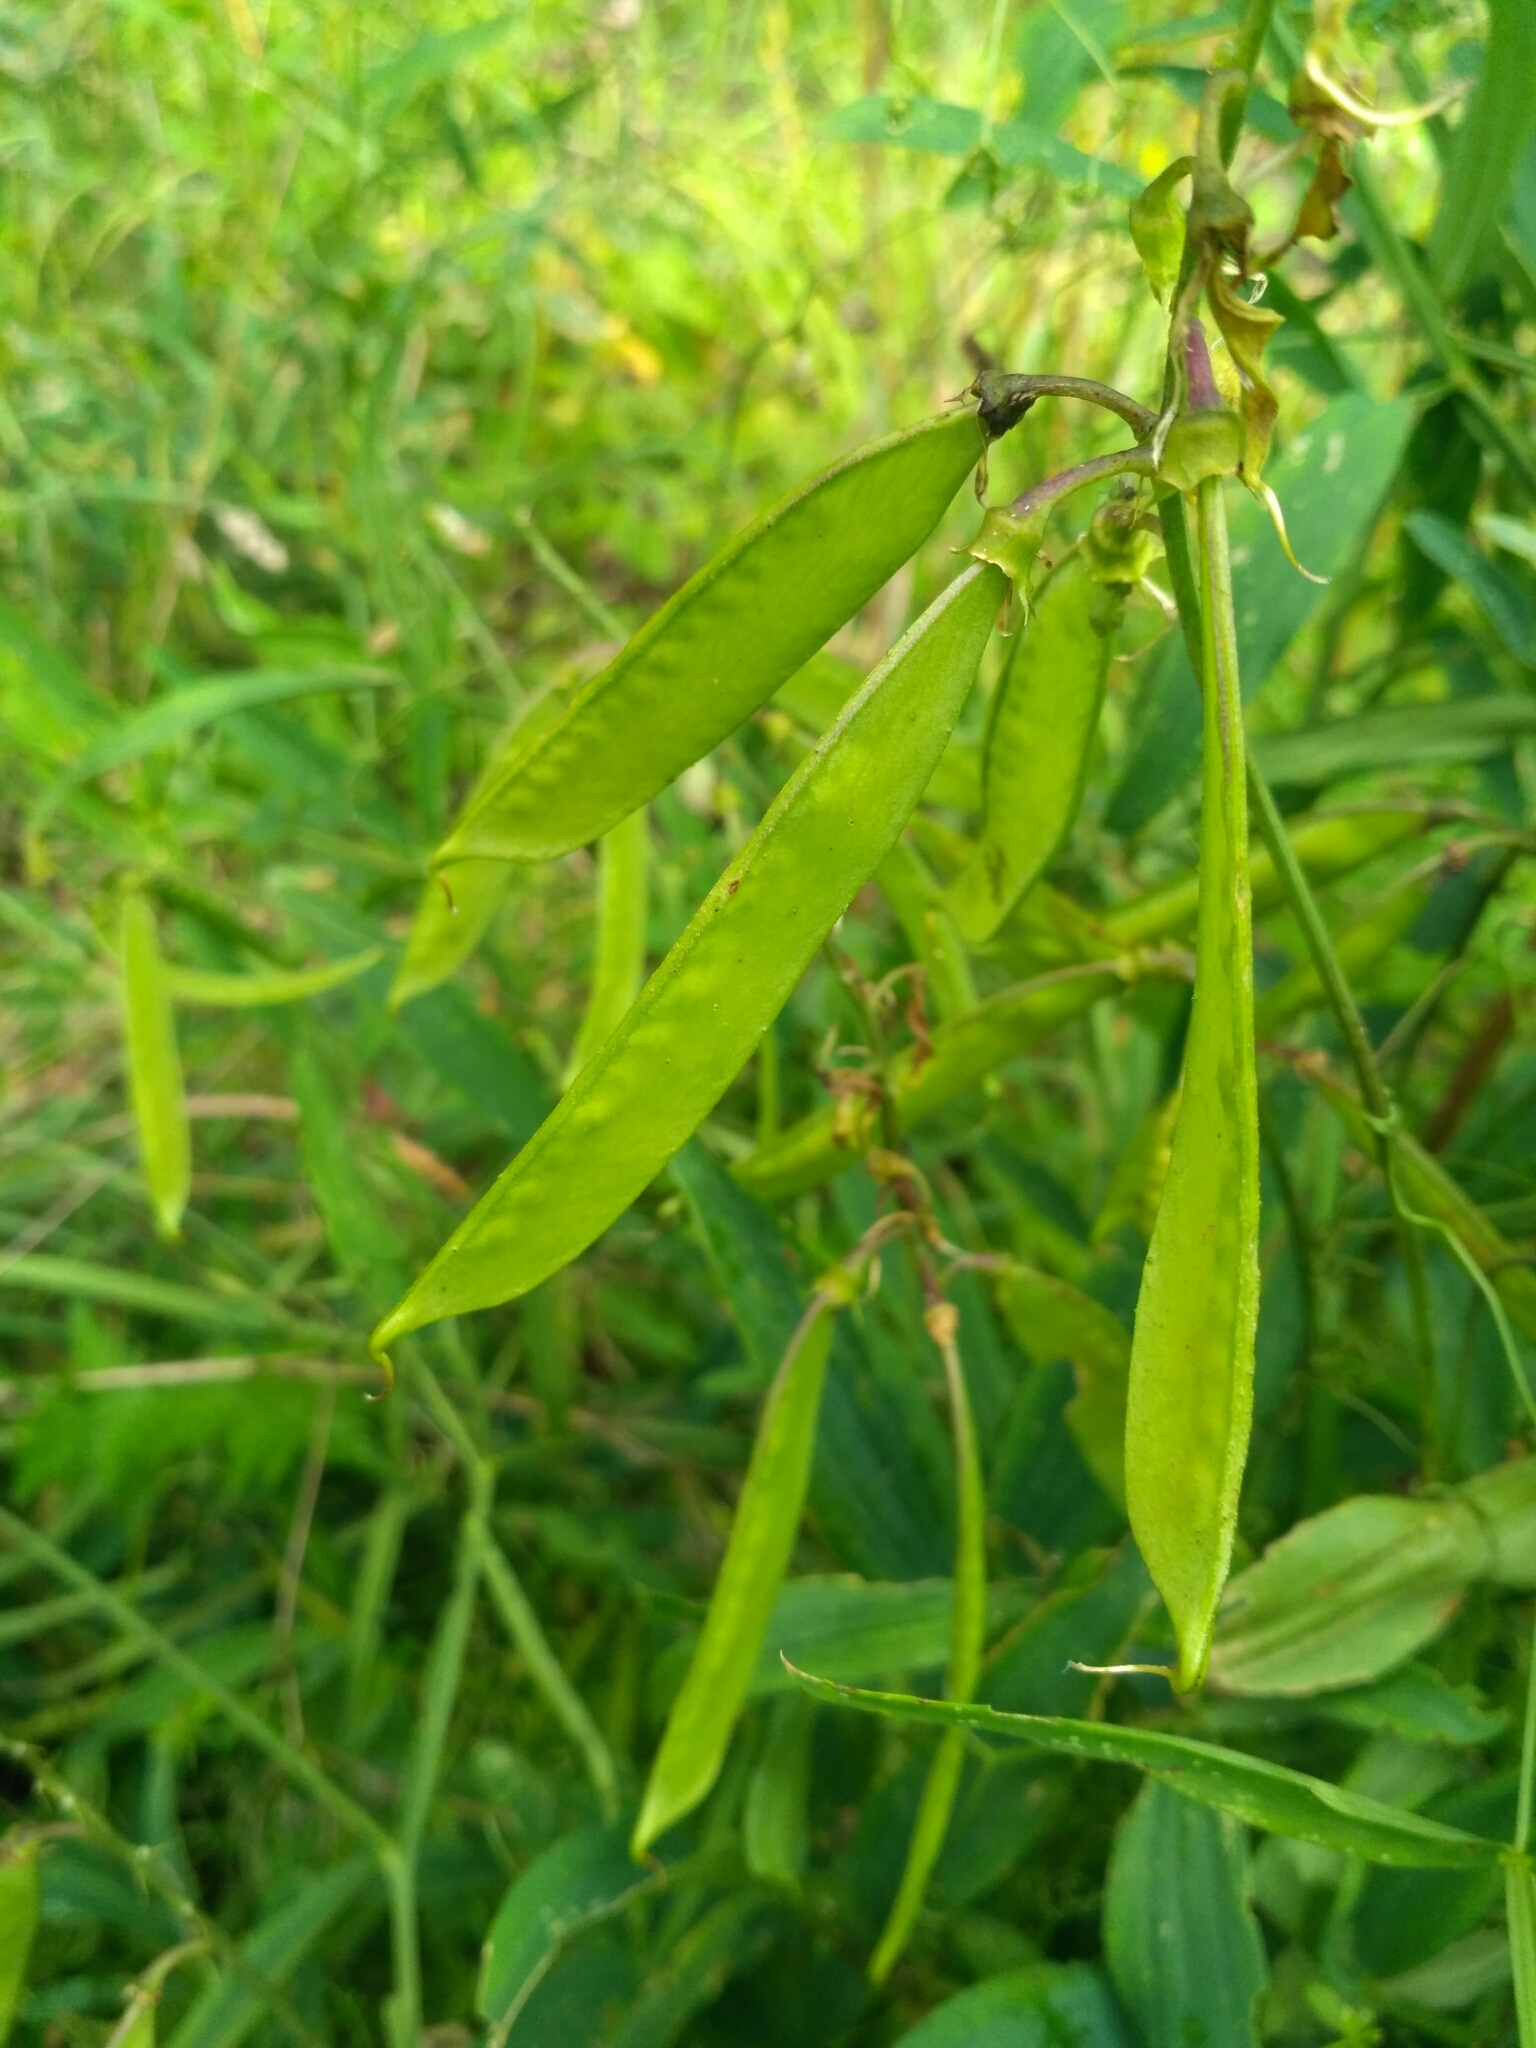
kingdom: Plantae
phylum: Tracheophyta
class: Magnoliopsida
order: Fabales
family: Fabaceae
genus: Lathyrus
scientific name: Lathyrus sylvestris
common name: Flat pea
